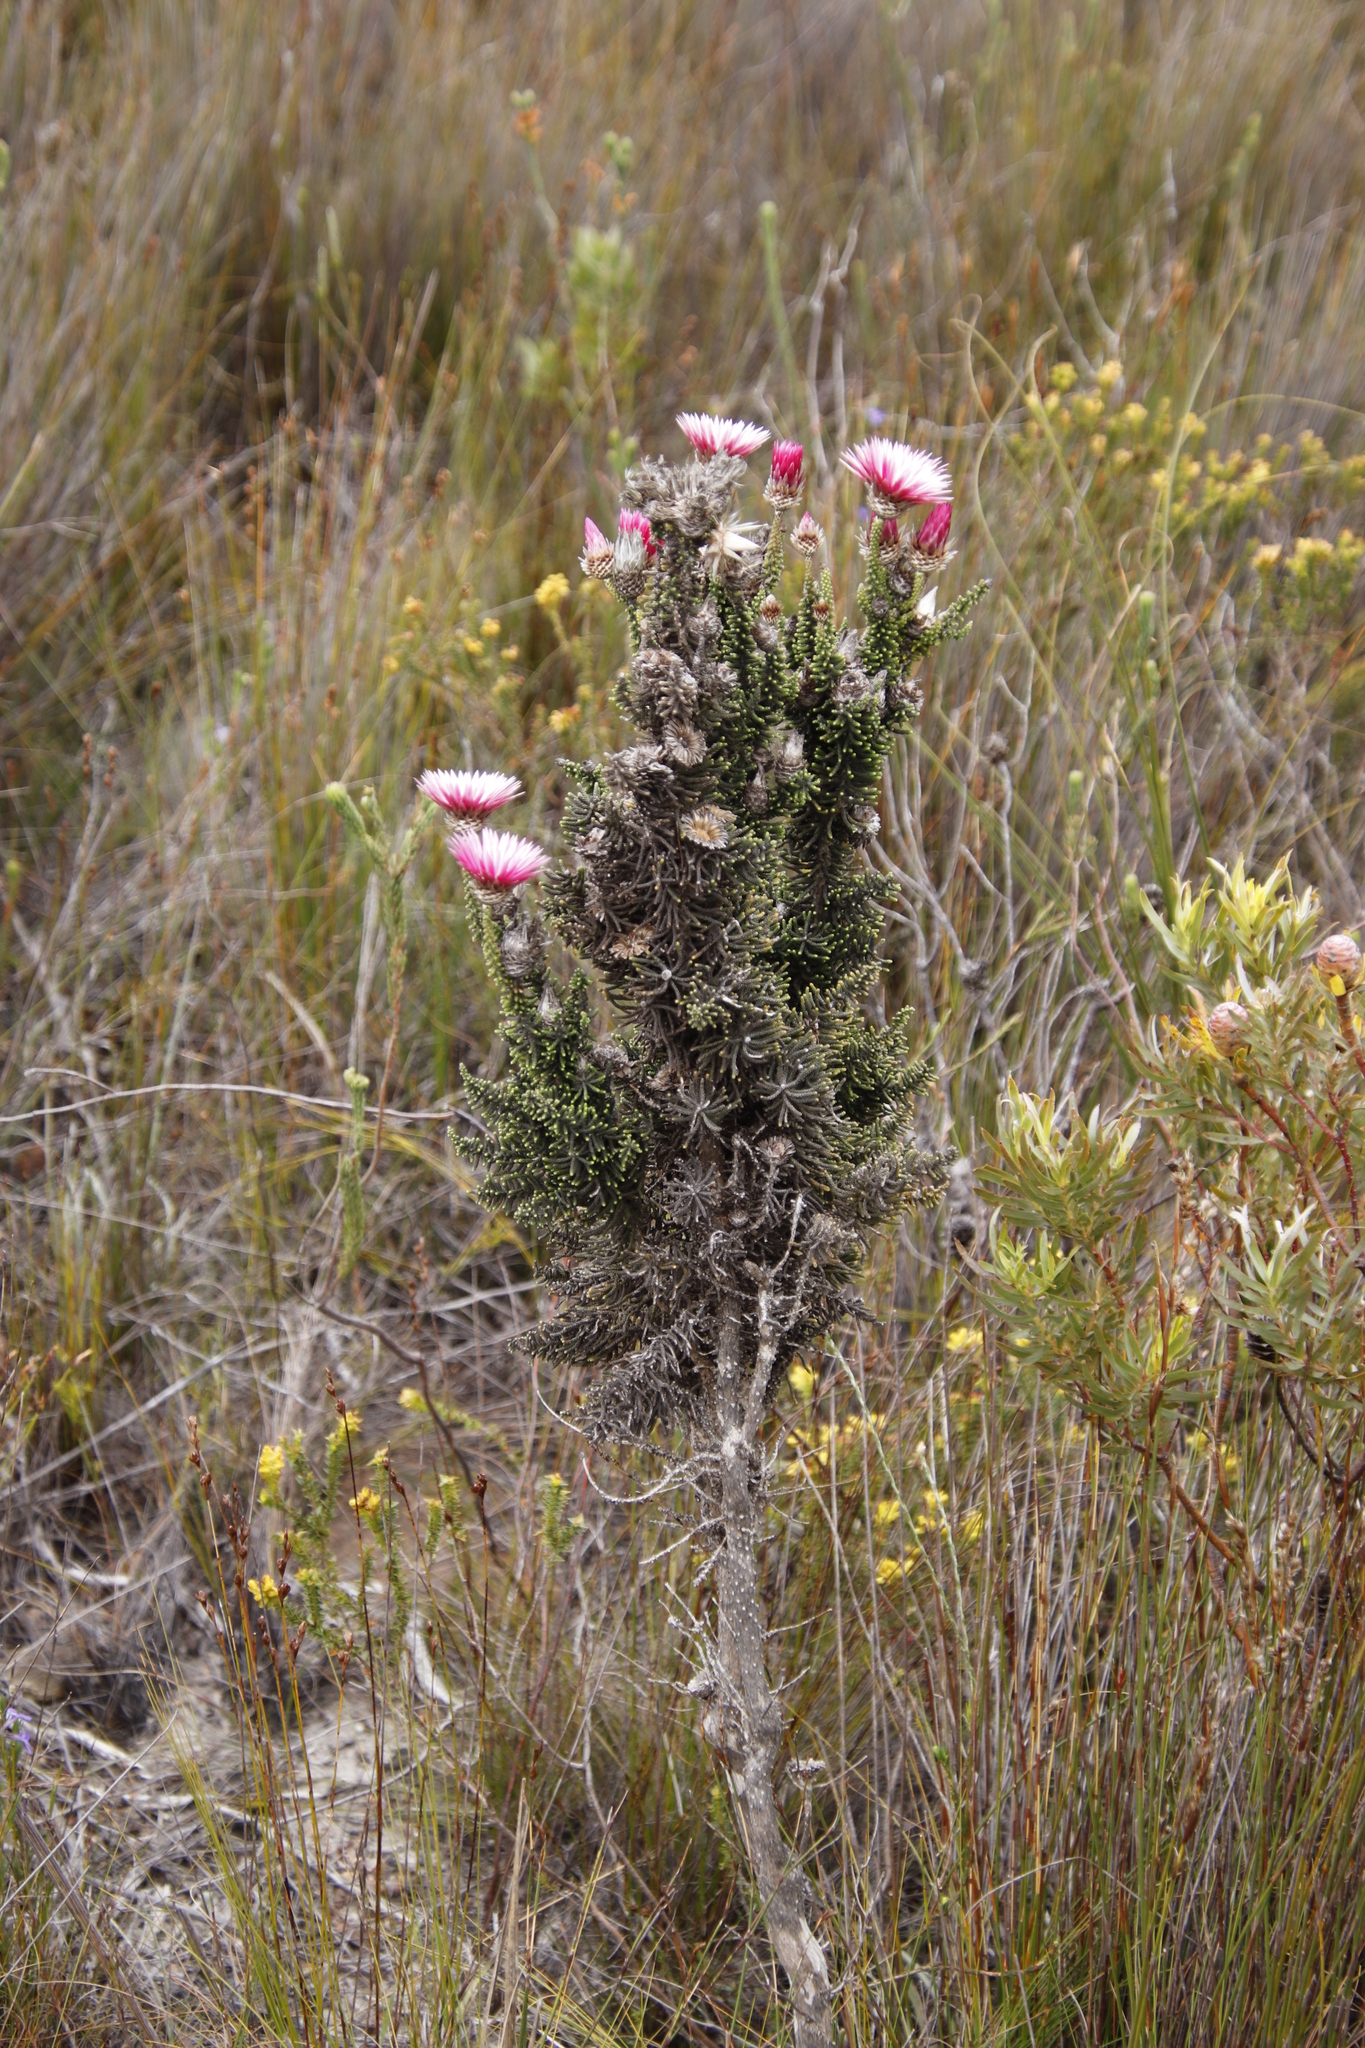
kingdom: Plantae
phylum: Tracheophyta
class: Magnoliopsida
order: Asterales
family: Asteraceae
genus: Phaenocoma
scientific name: Phaenocoma prolifera
